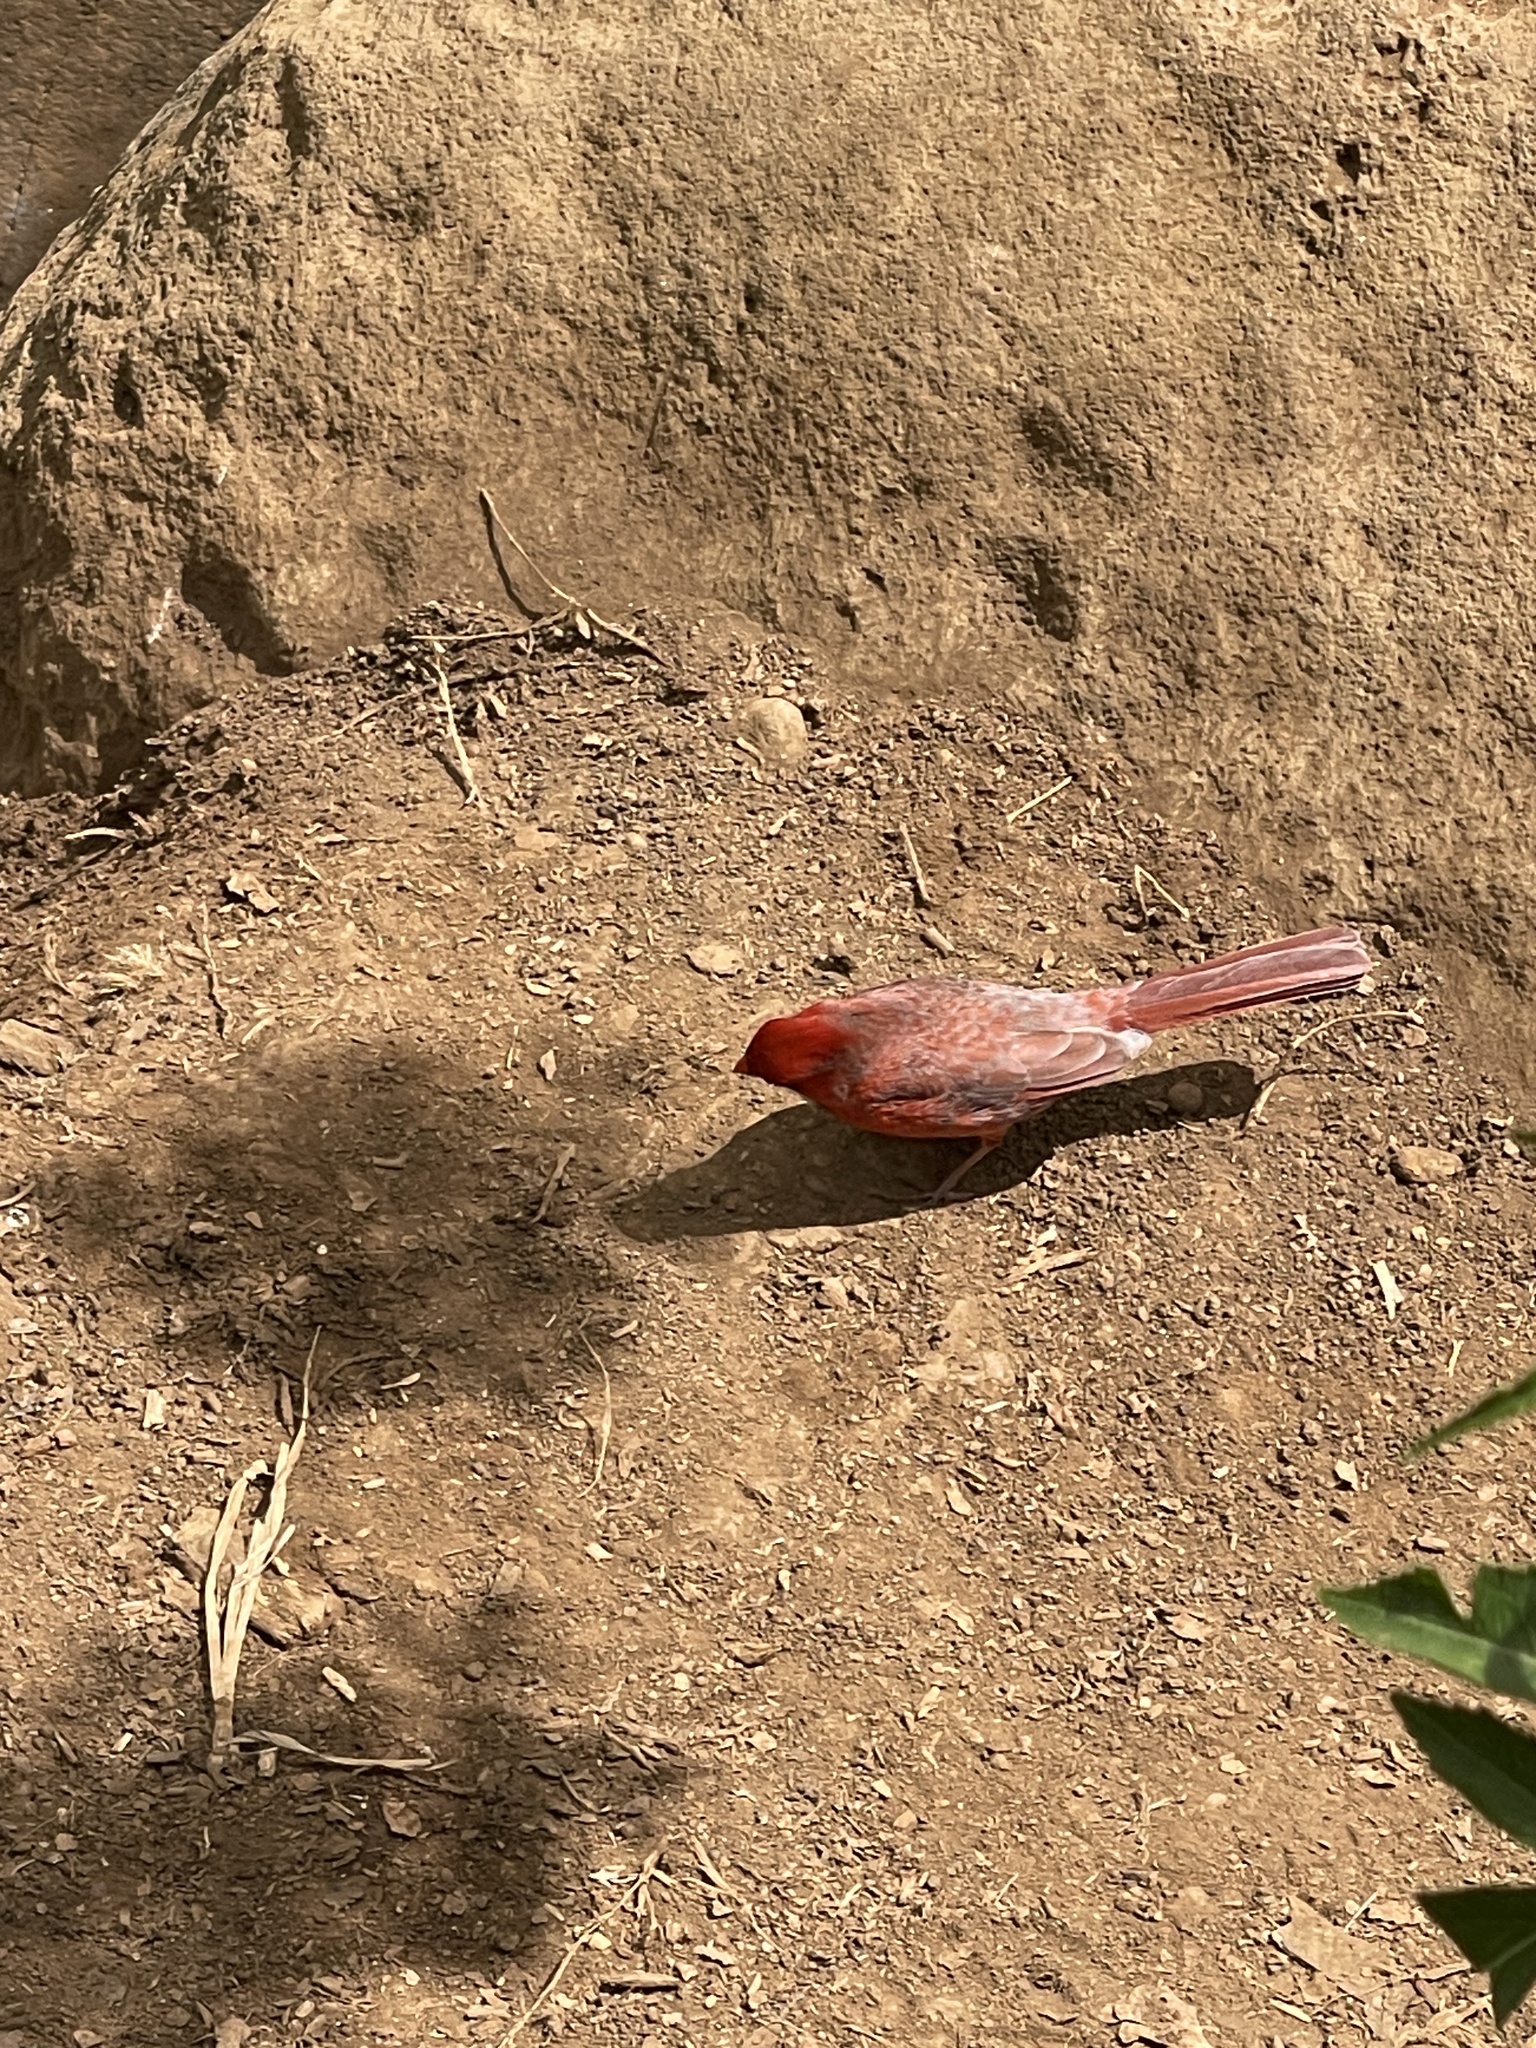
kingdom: Animalia
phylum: Chordata
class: Aves
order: Passeriformes
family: Cardinalidae
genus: Cardinalis
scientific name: Cardinalis cardinalis
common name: Northern cardinal
